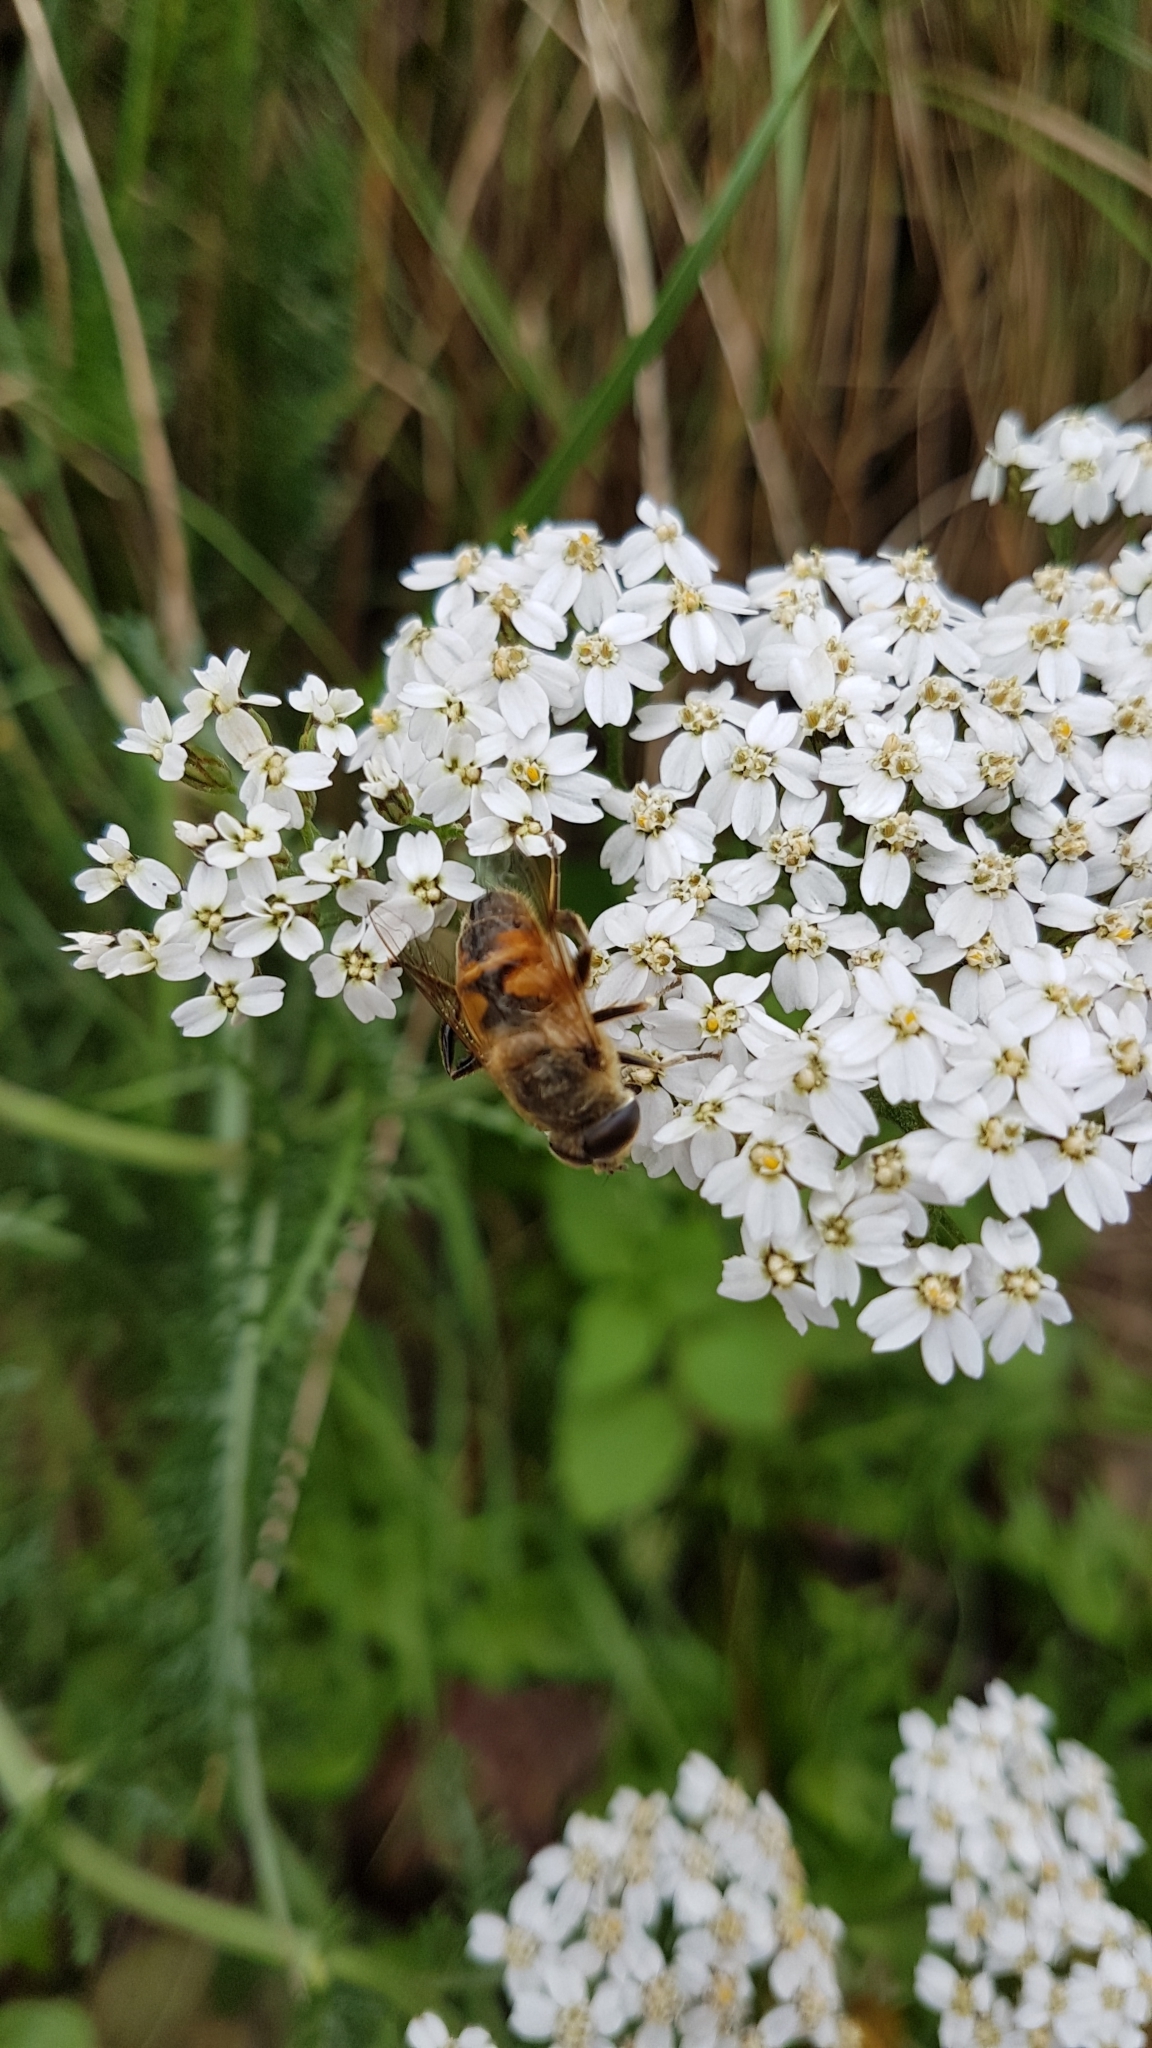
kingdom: Plantae
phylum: Tracheophyta
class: Magnoliopsida
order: Asterales
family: Asteraceae
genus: Achillea
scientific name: Achillea millefolium
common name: Yarrow
